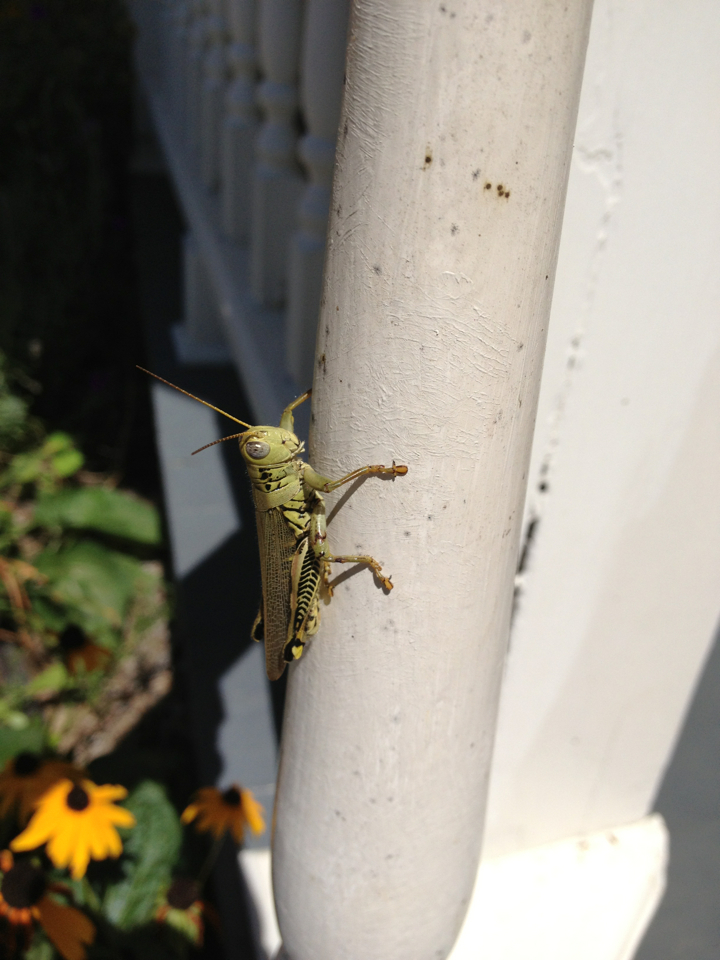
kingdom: Animalia
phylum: Arthropoda
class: Insecta
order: Orthoptera
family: Acrididae
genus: Melanoplus
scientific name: Melanoplus differentialis
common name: Differential grasshopper
